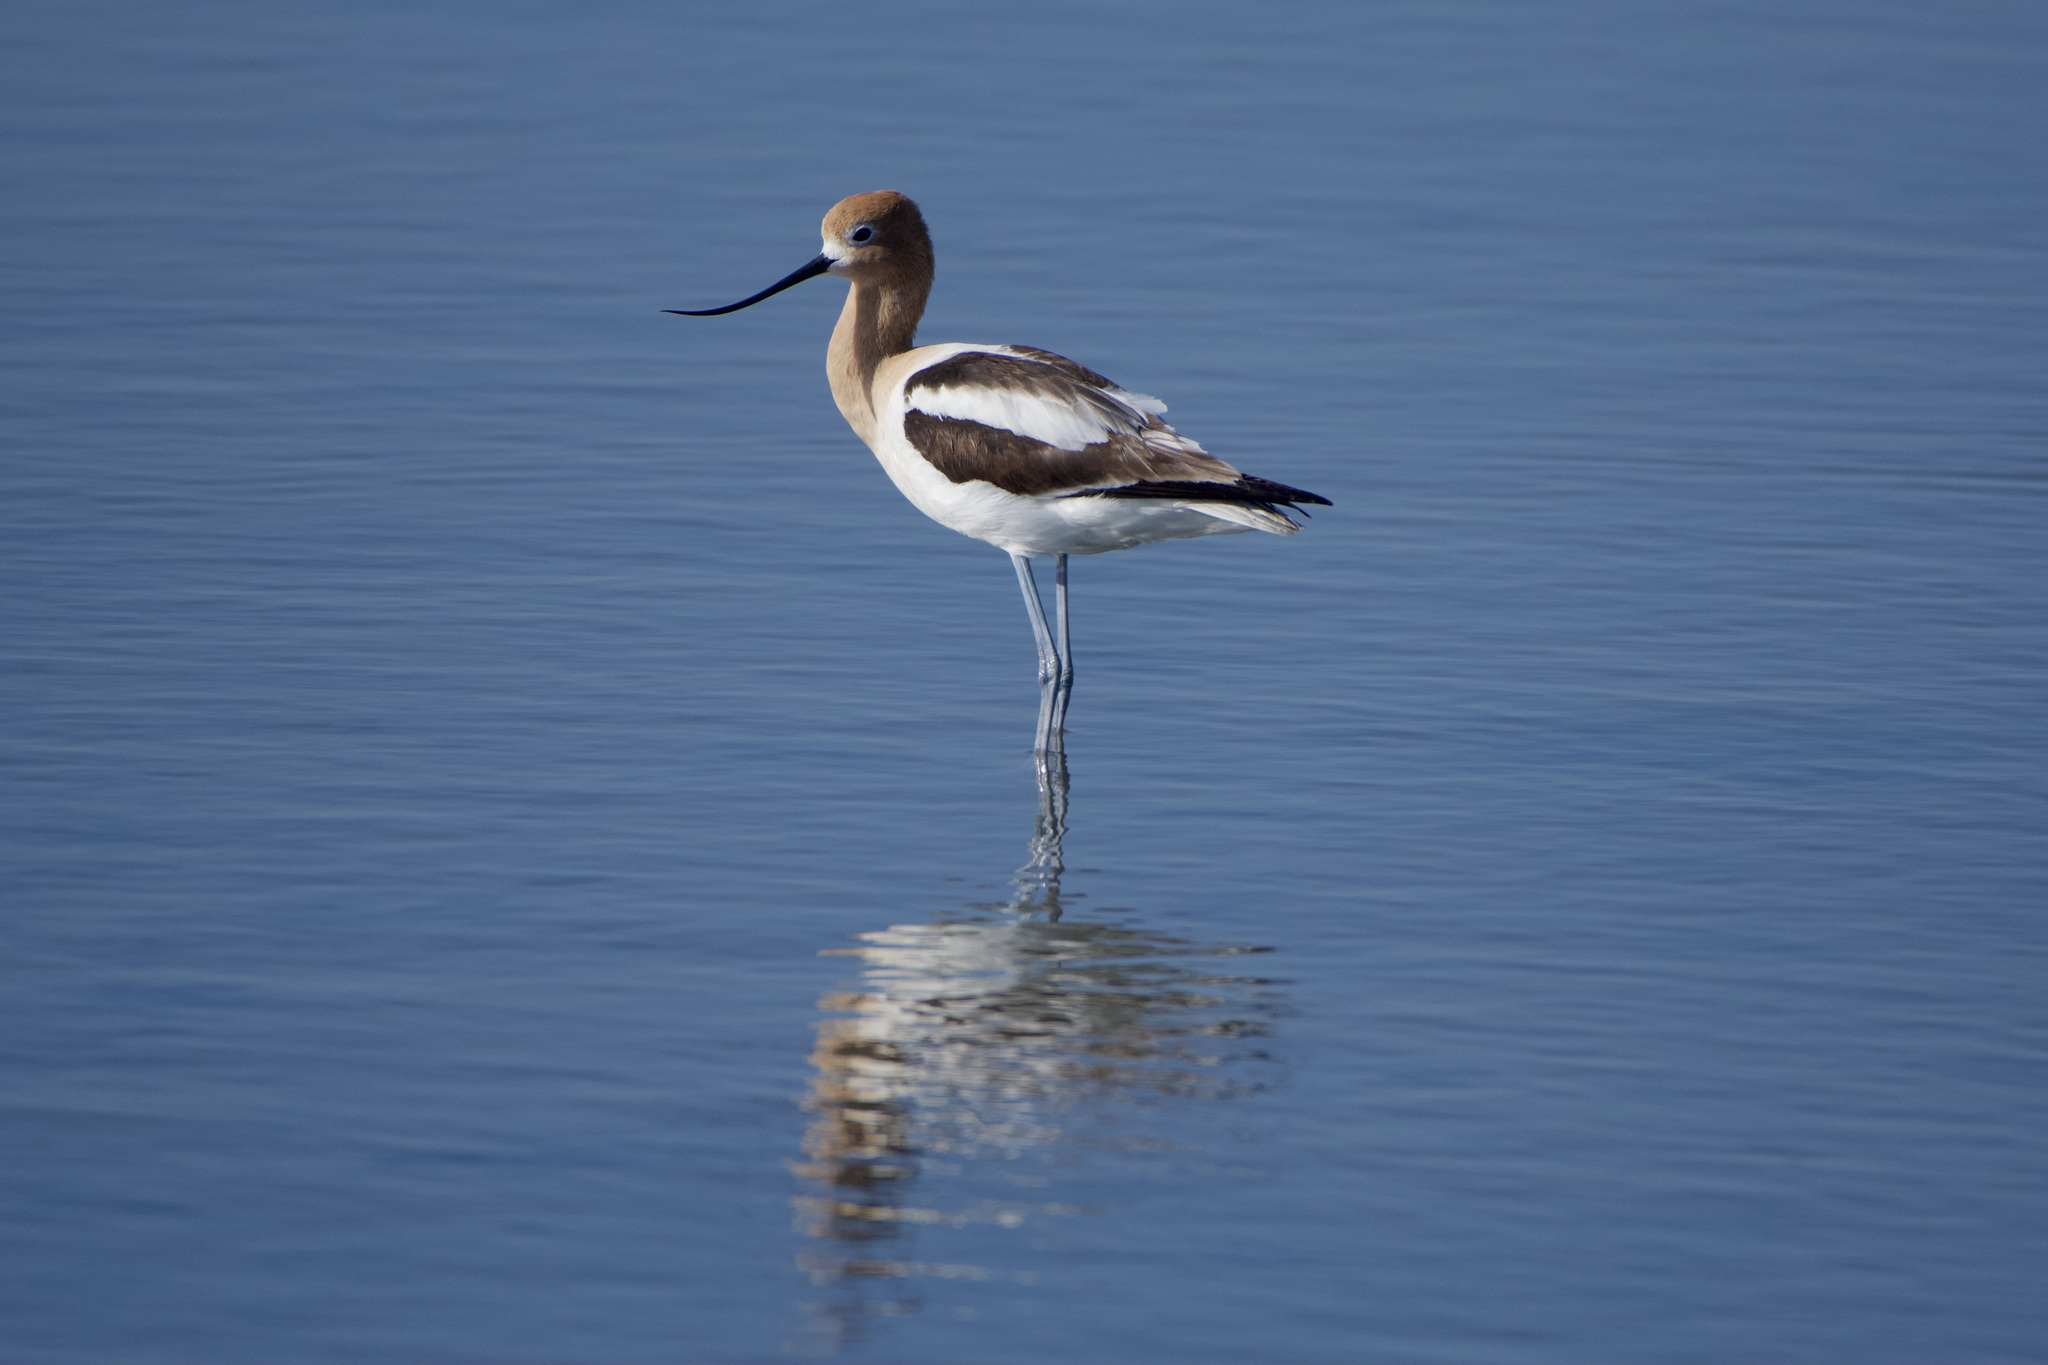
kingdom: Animalia
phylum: Chordata
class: Aves
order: Charadriiformes
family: Recurvirostridae
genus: Recurvirostra
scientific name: Recurvirostra americana
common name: American avocet
